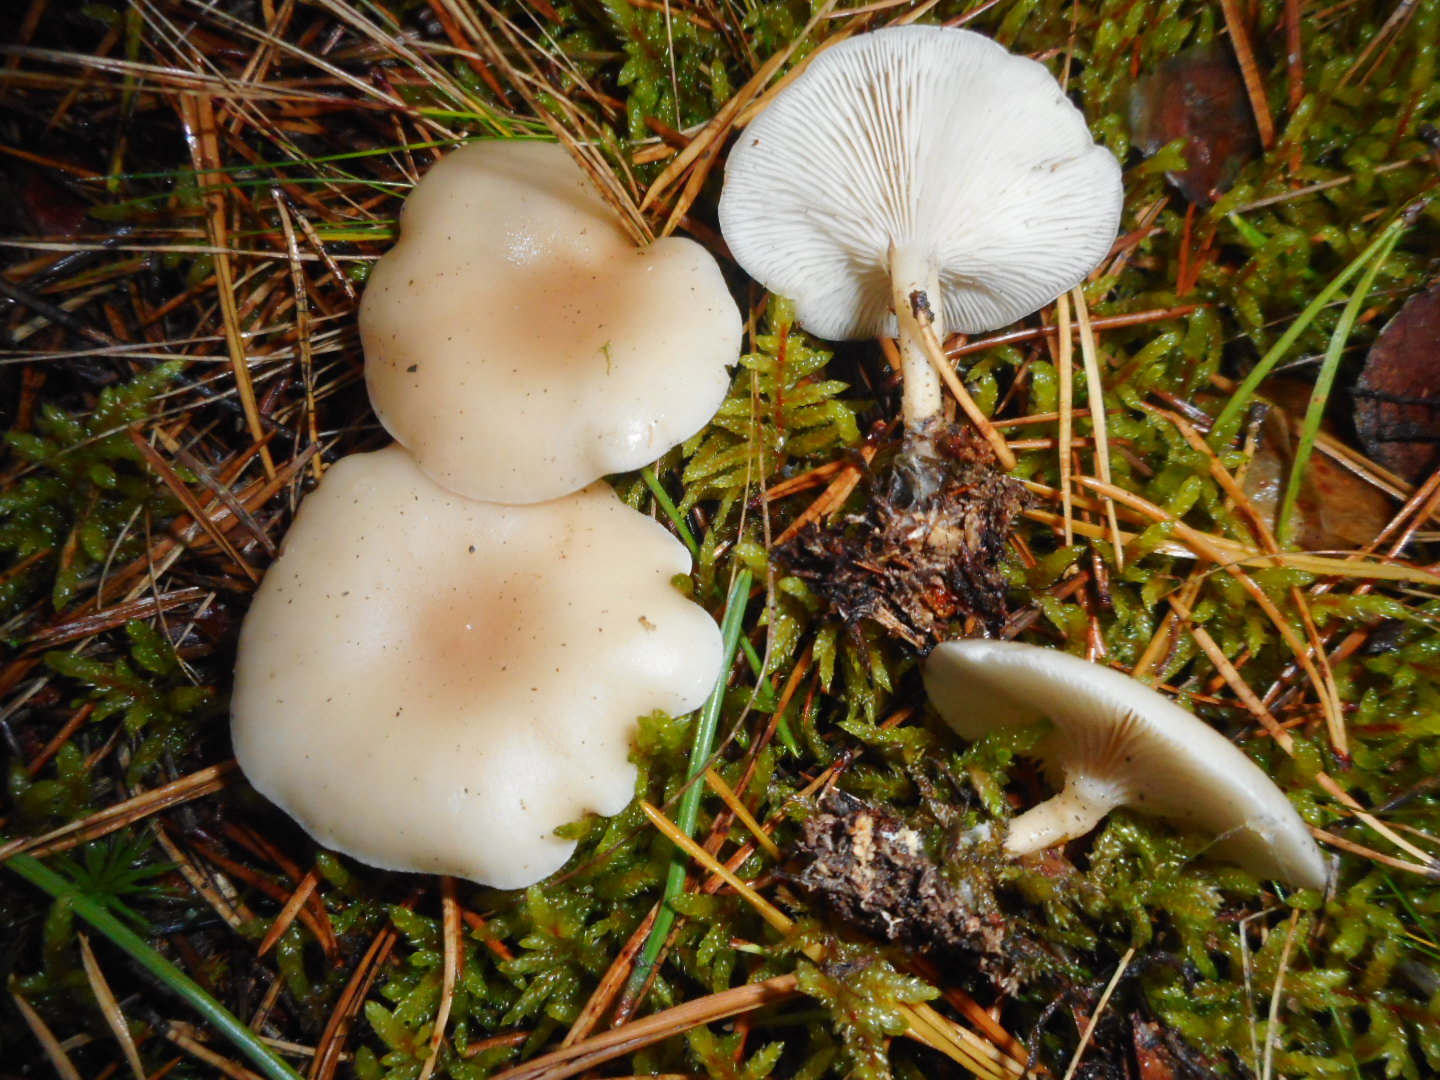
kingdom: Fungi
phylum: Basidiomycota
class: Agaricomycetes
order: Agaricales
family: Tricholomataceae
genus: Clitocybe
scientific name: Clitocybe fragrans
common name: Fragrant funnel
